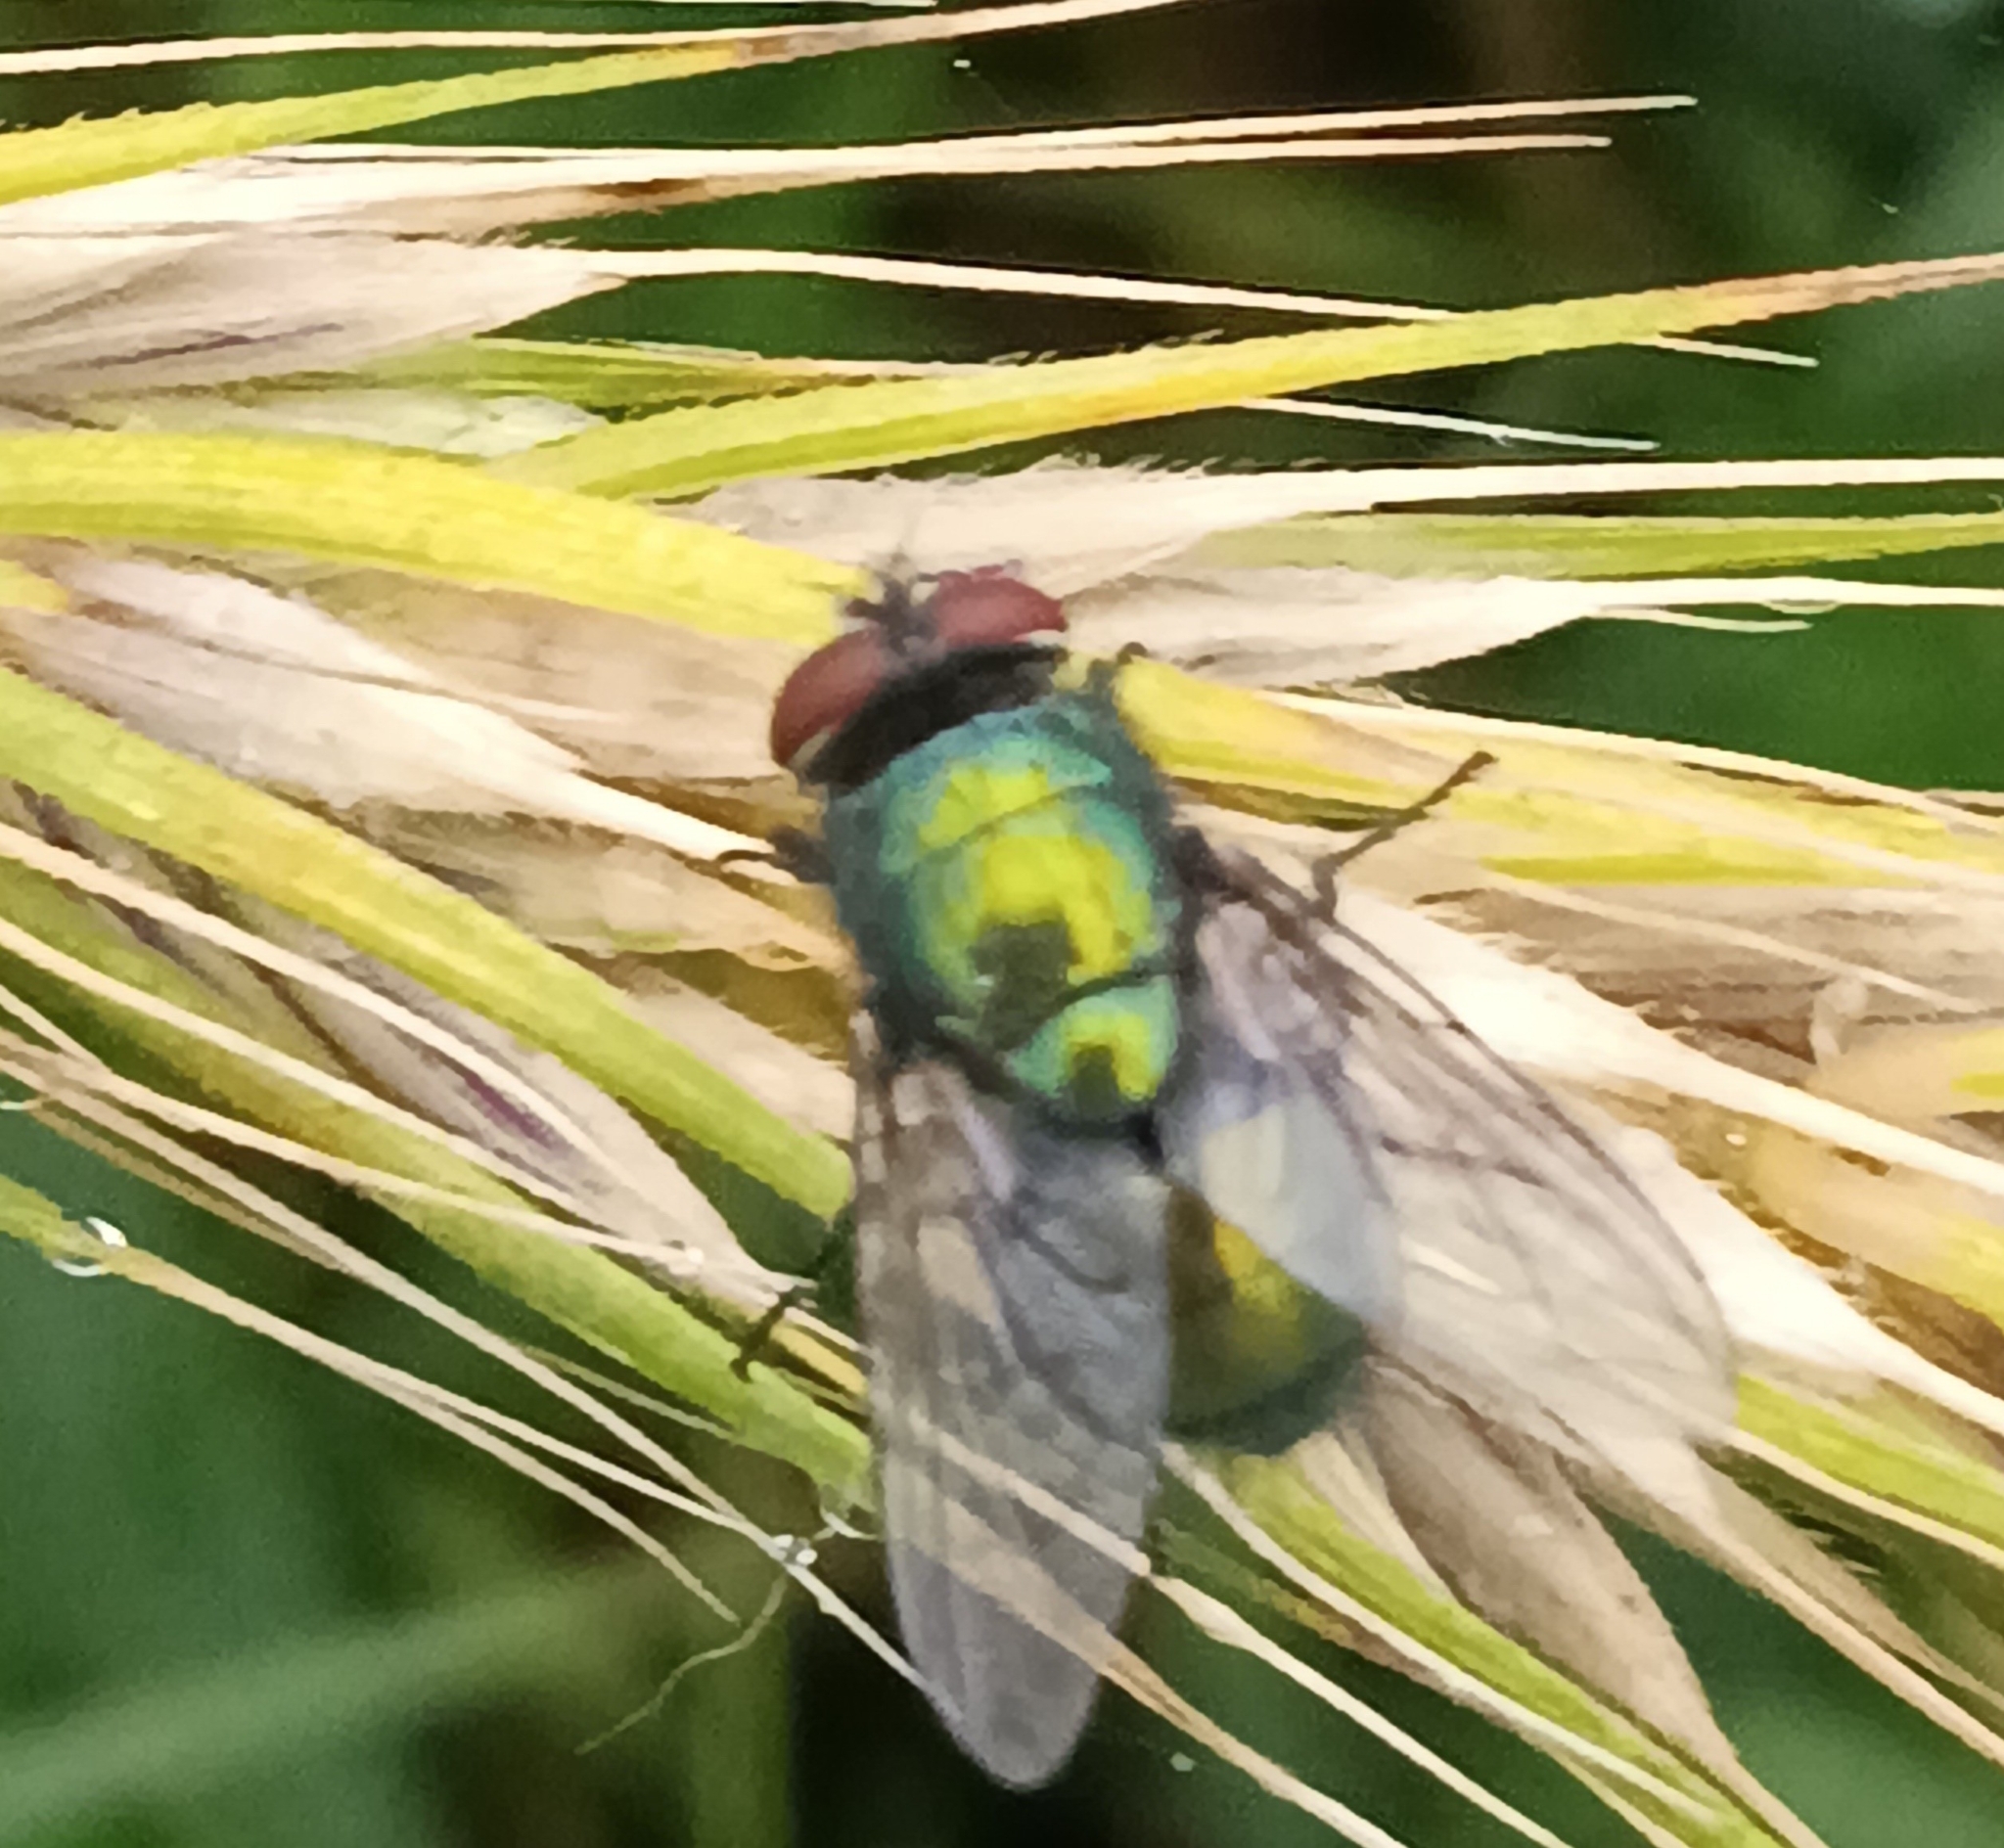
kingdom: Animalia
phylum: Arthropoda
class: Insecta
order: Diptera
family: Calliphoridae
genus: Lucilia
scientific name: Lucilia
